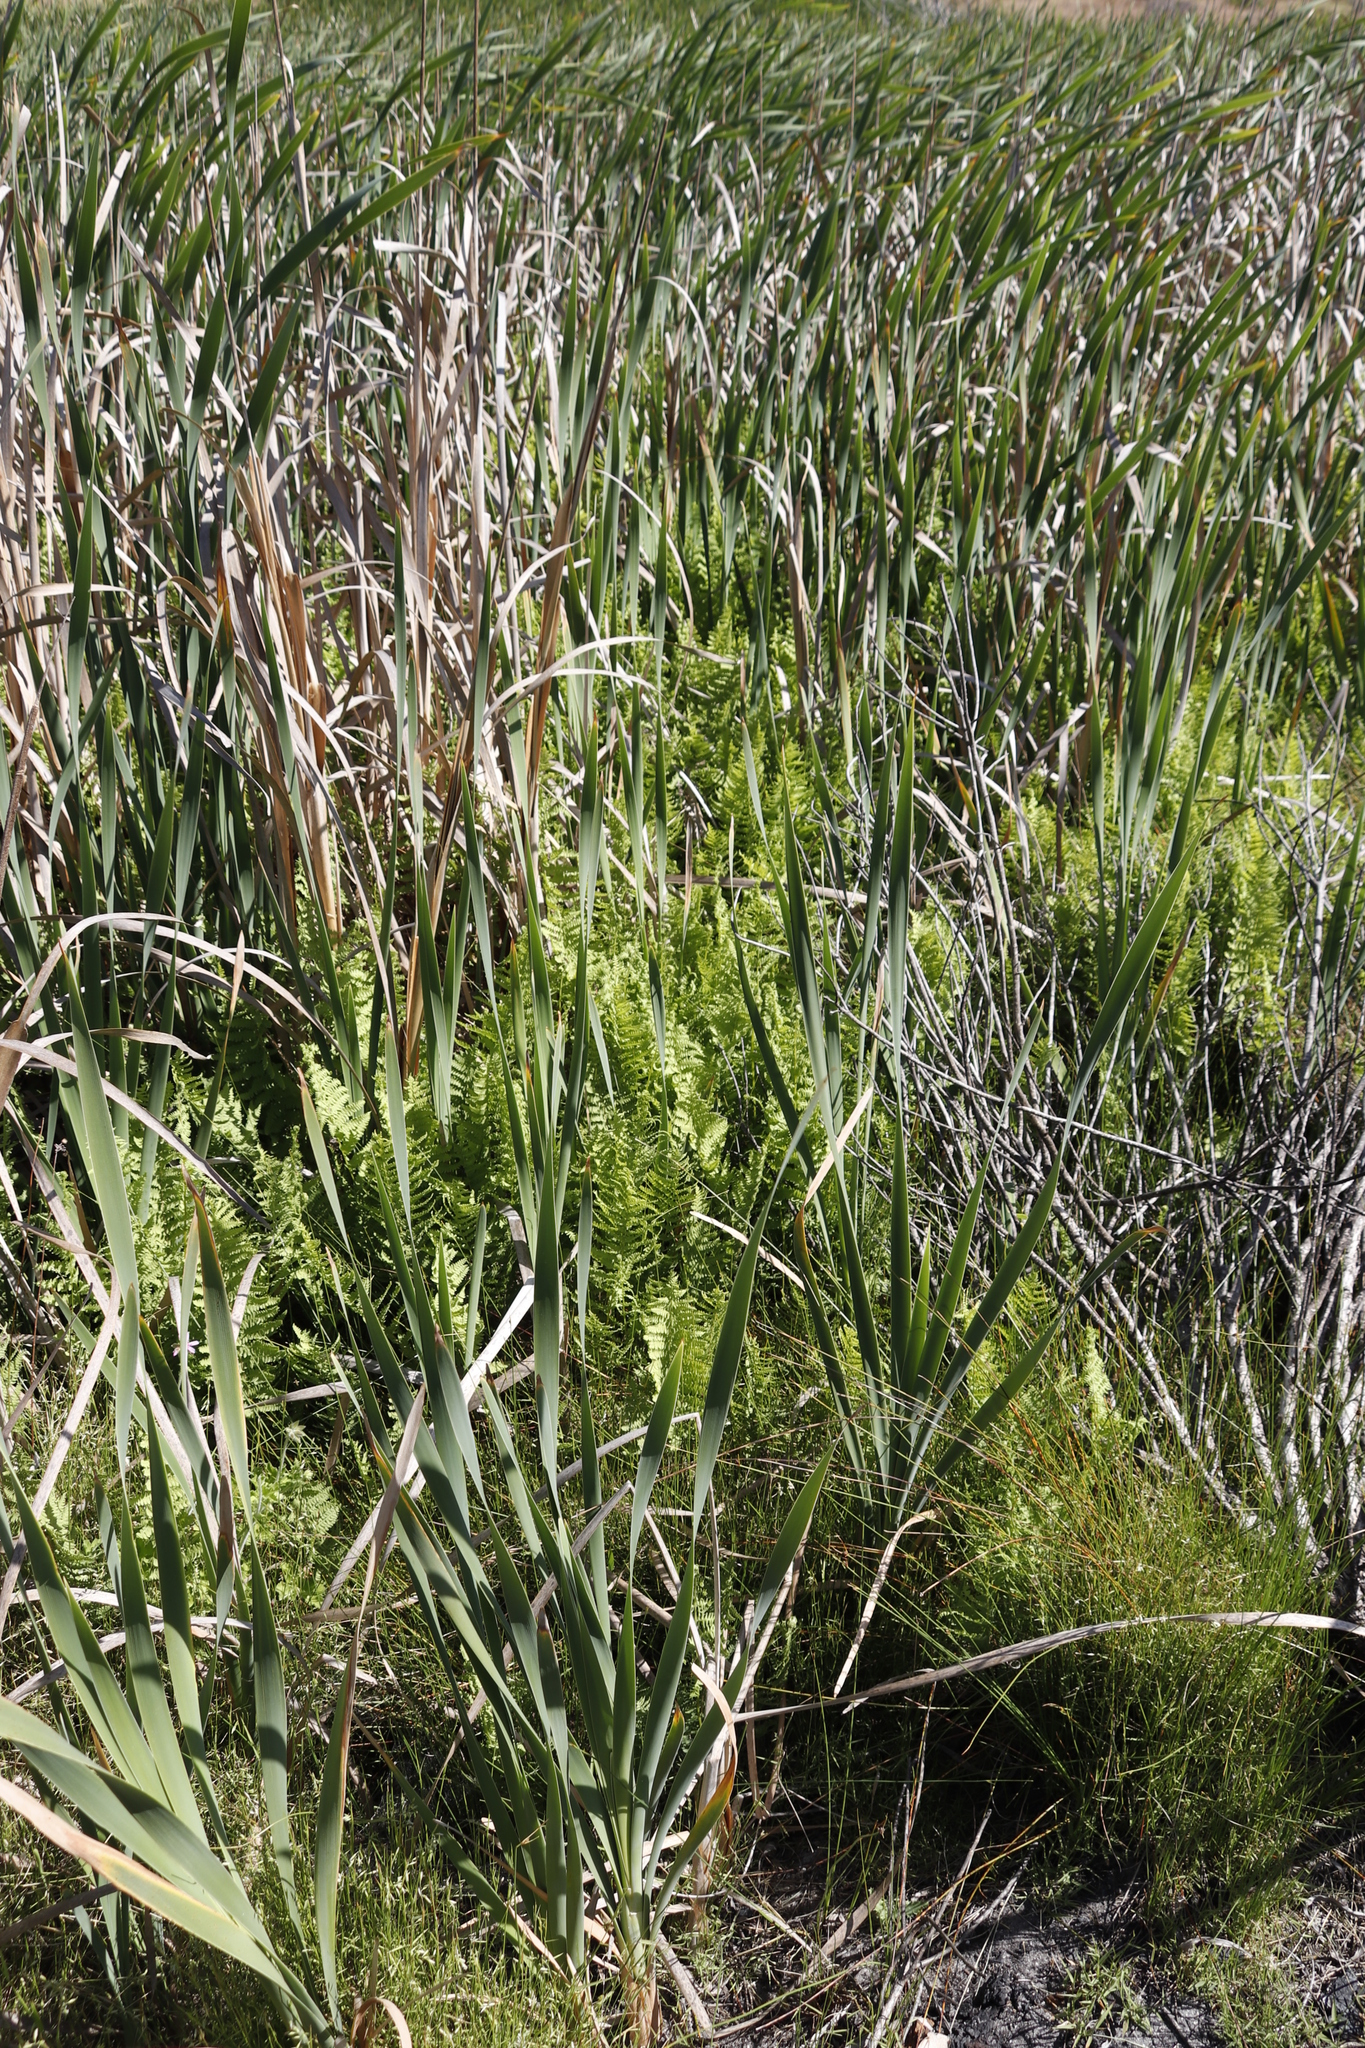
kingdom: Plantae
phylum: Tracheophyta
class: Polypodiopsida
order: Polypodiales
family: Thelypteridaceae
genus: Thelypteris
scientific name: Thelypteris confluens
